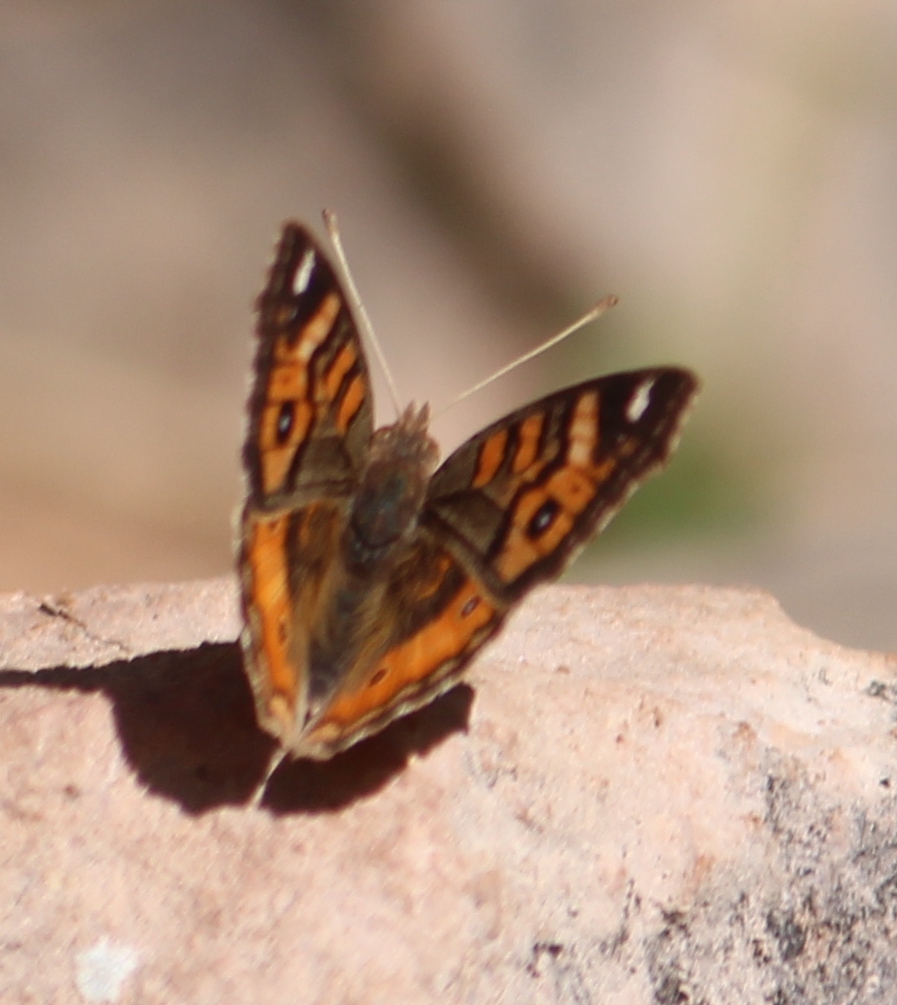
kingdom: Animalia
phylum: Arthropoda
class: Insecta
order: Lepidoptera
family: Nymphalidae
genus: Junonia
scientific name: Junonia vestina
